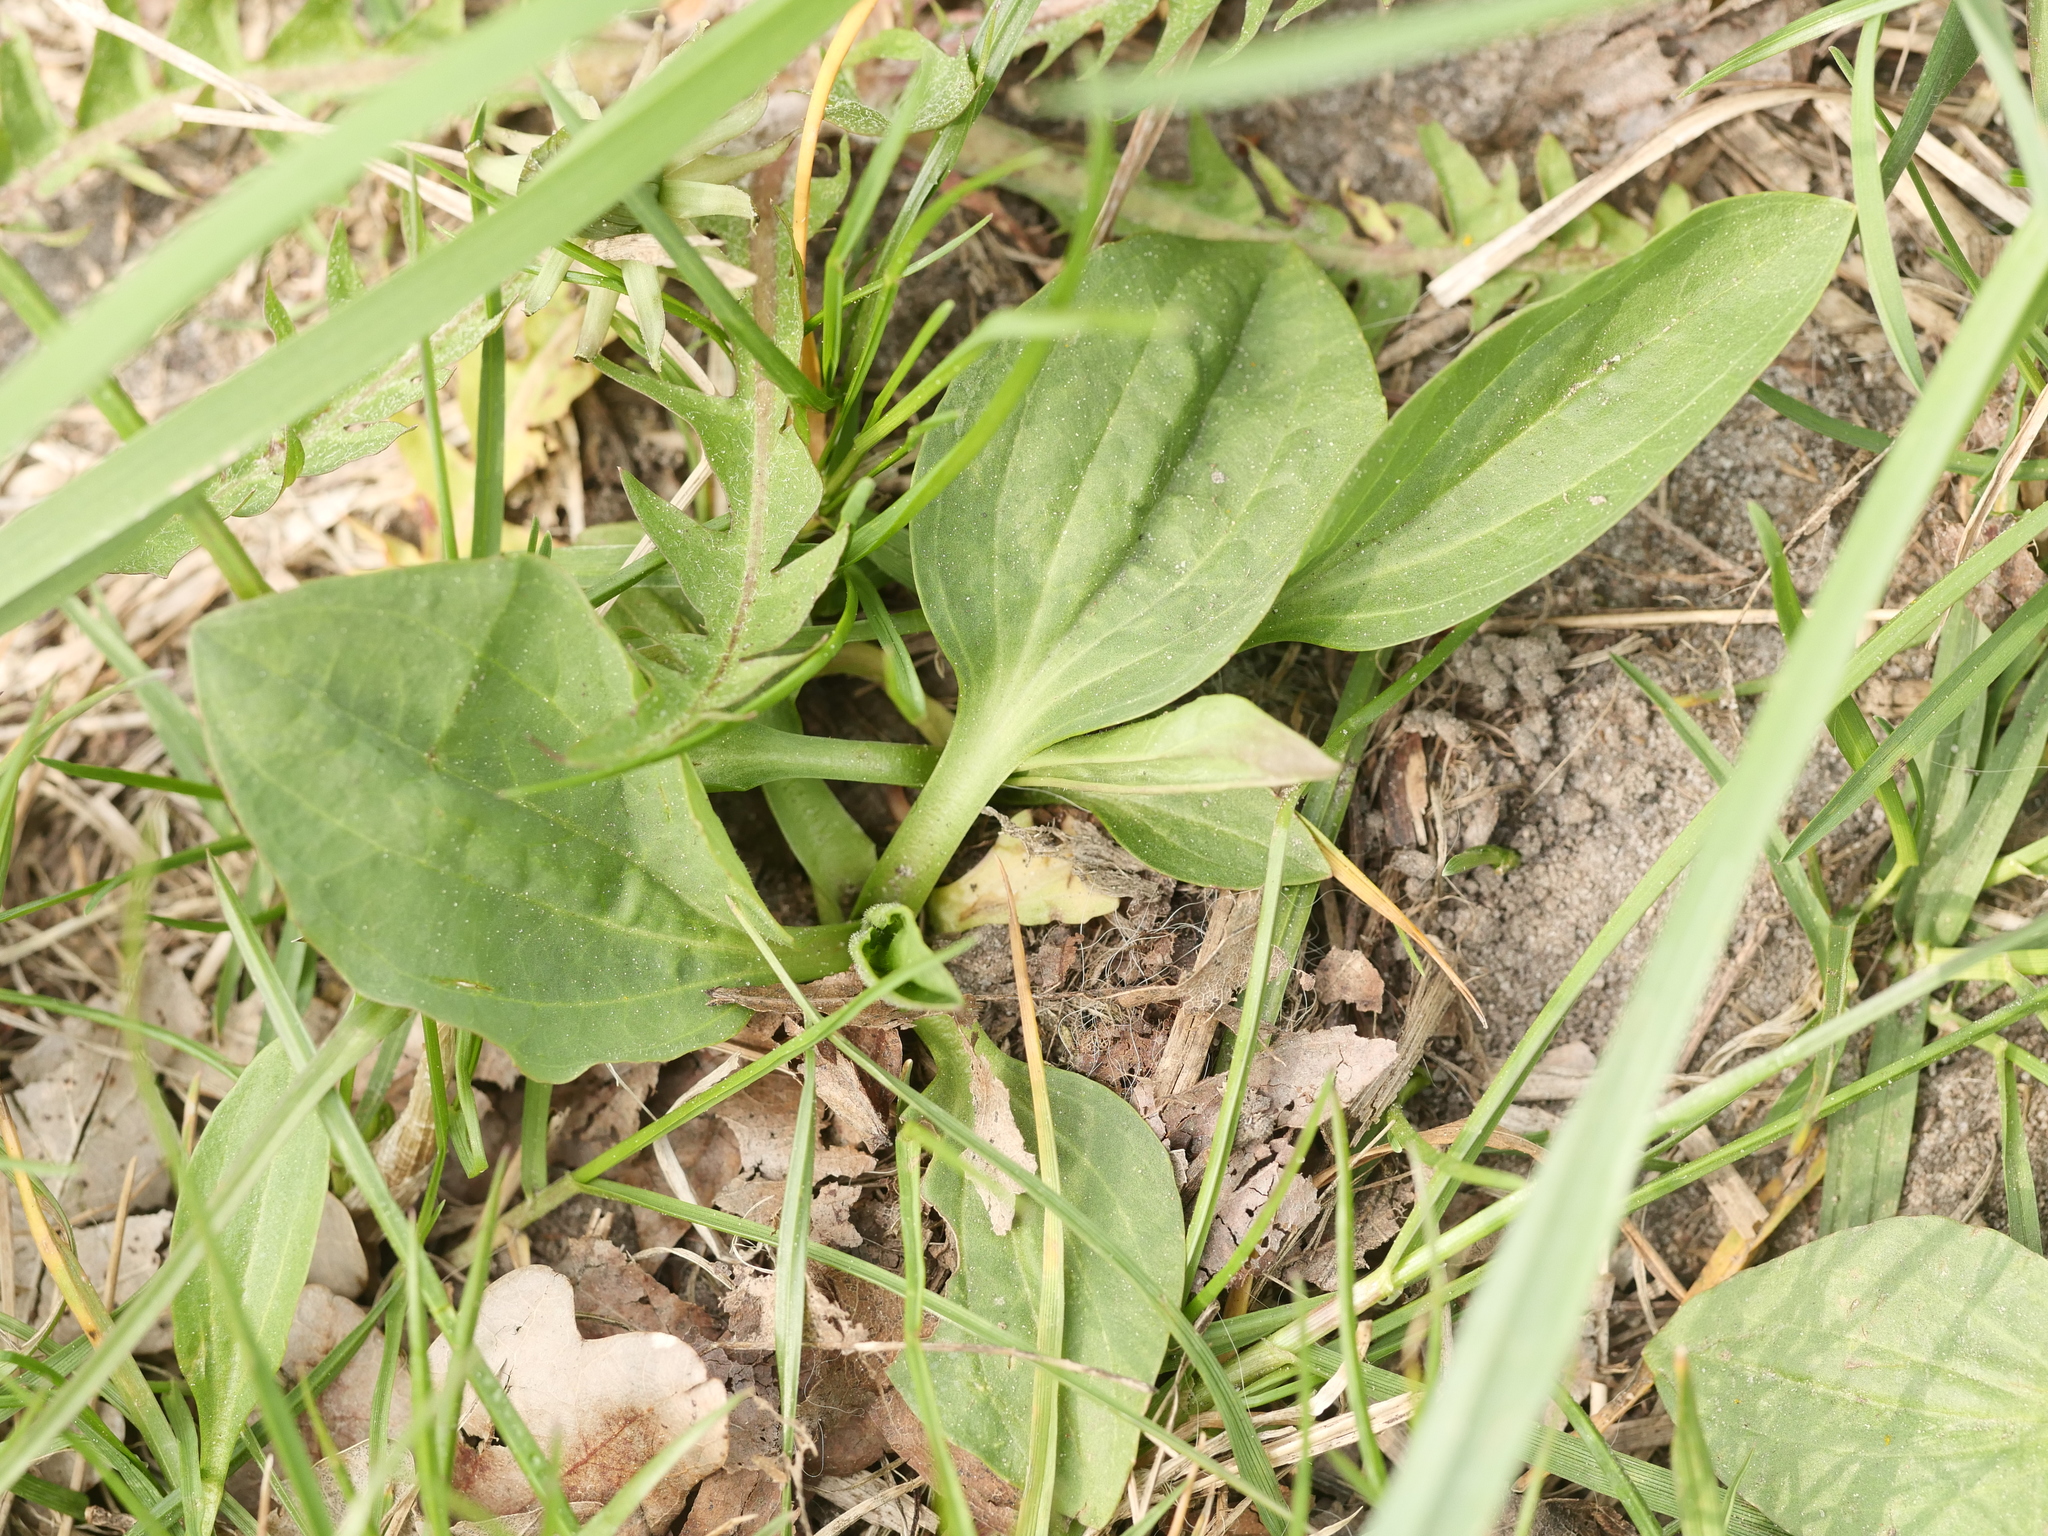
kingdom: Plantae
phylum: Tracheophyta
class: Magnoliopsida
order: Lamiales
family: Plantaginaceae
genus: Plantago
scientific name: Plantago major
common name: Common plantain
